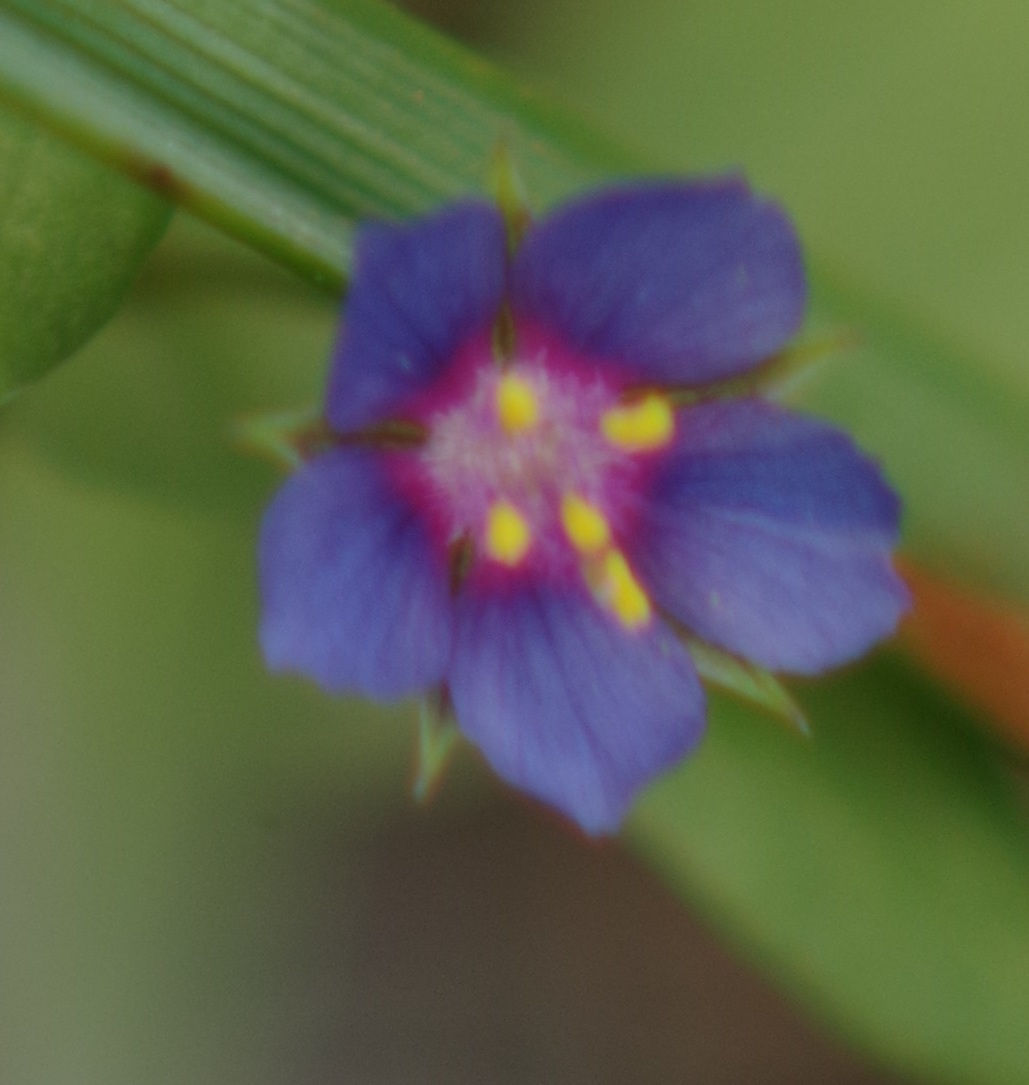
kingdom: Plantae
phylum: Tracheophyta
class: Magnoliopsida
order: Ericales
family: Primulaceae
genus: Lysimachia
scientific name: Lysimachia foemina
